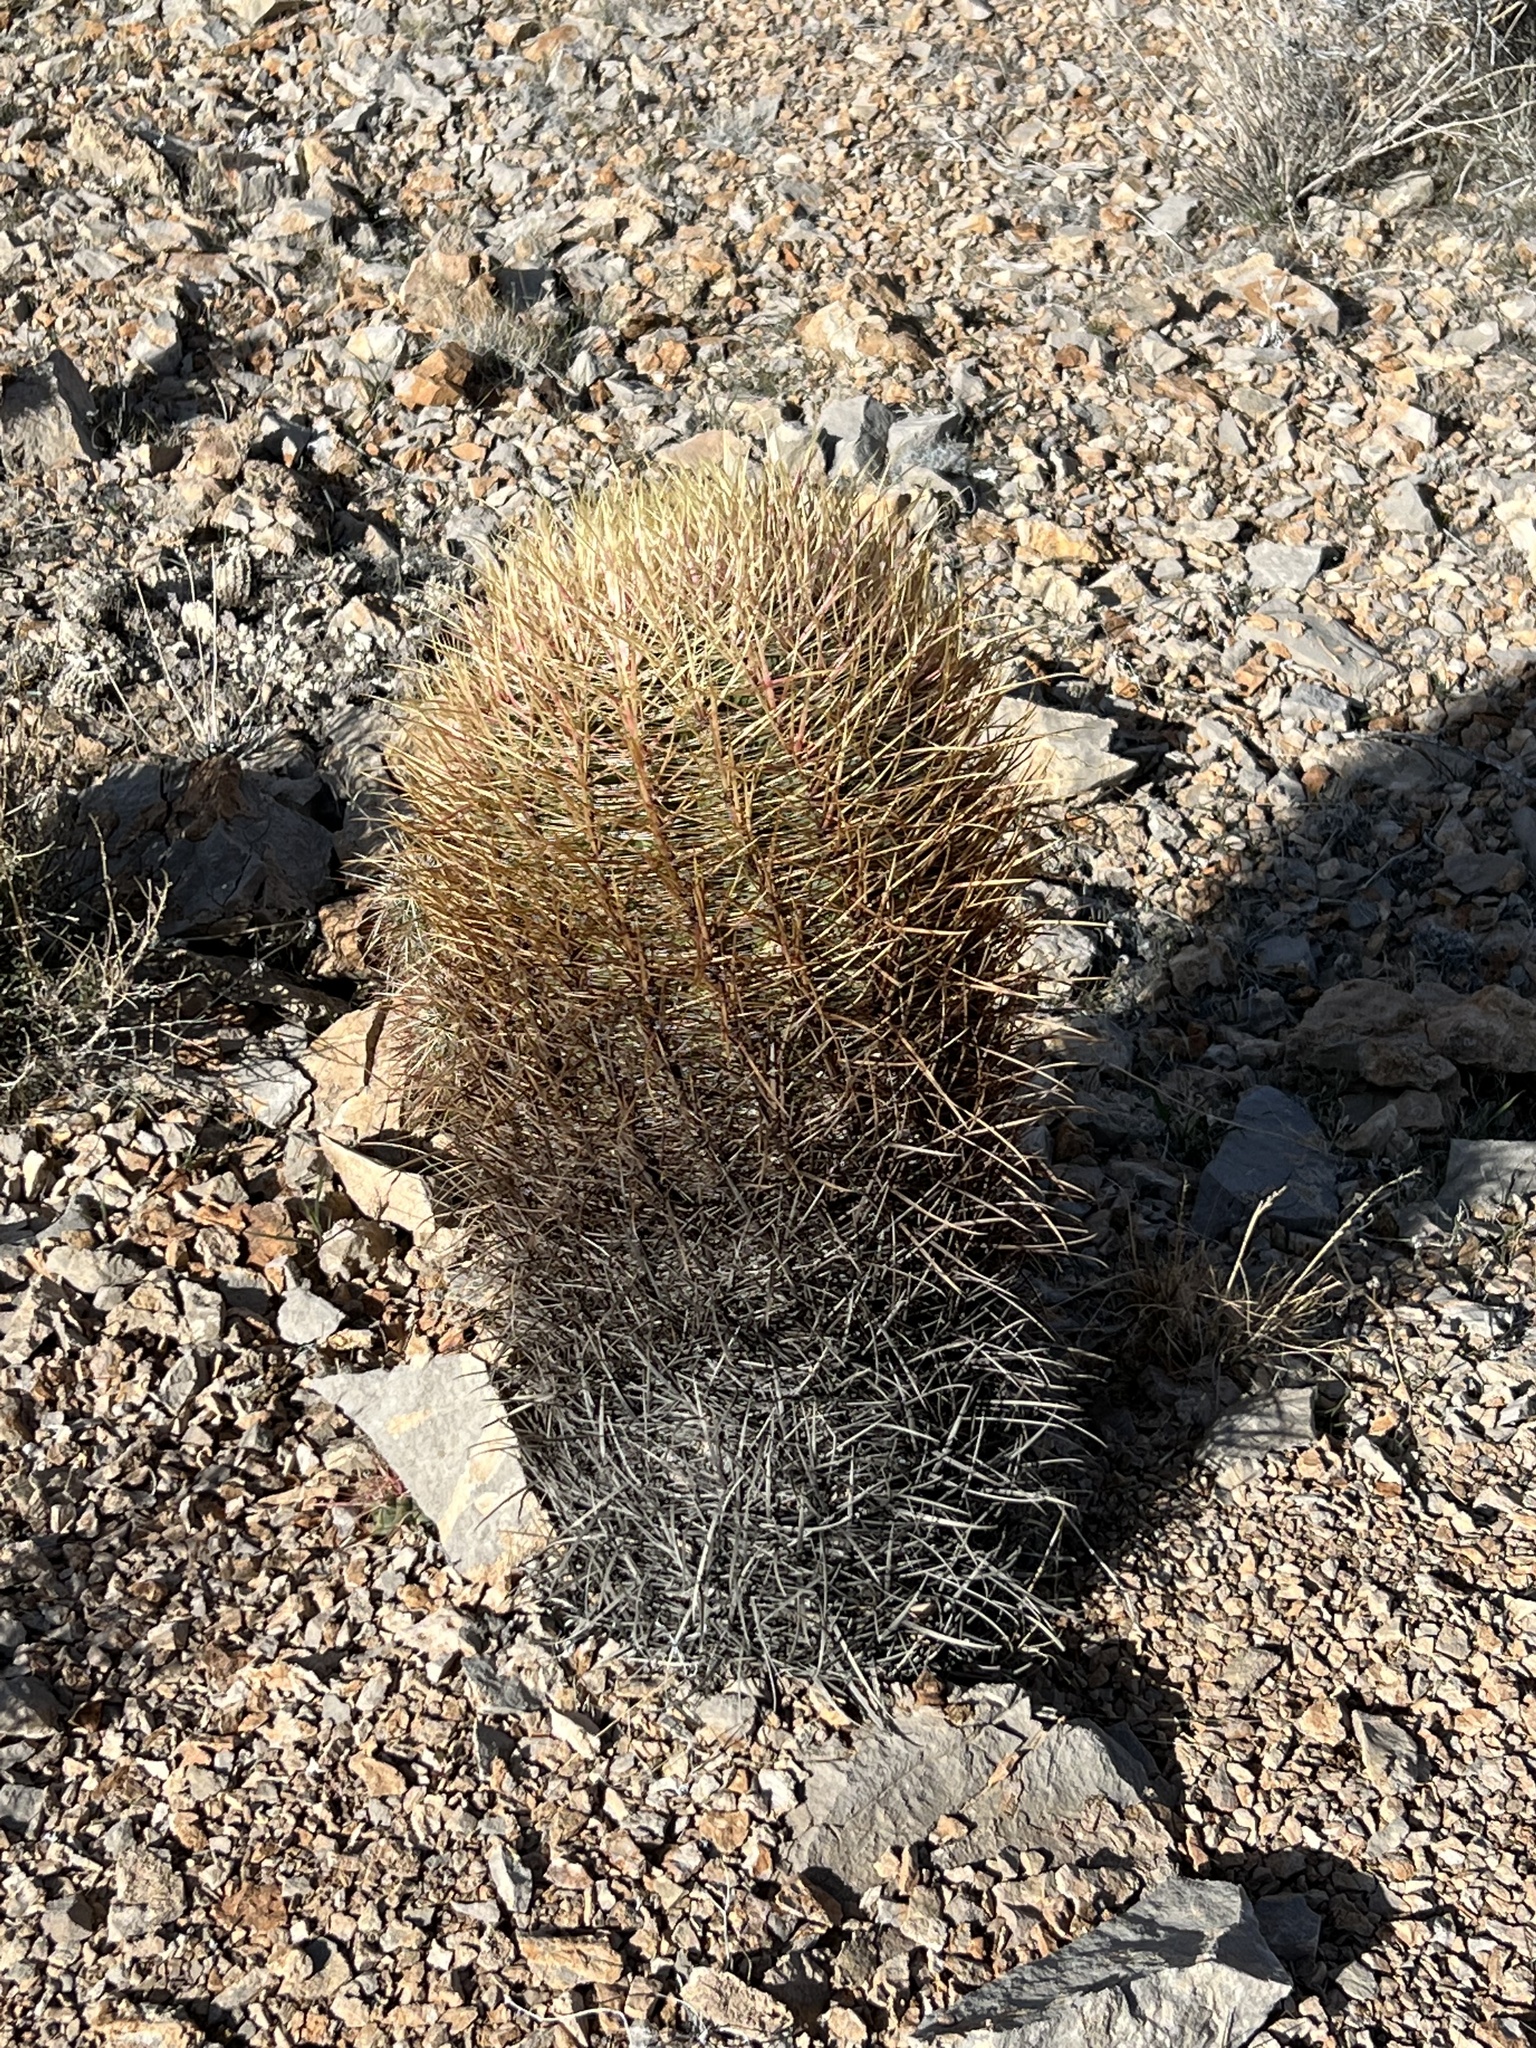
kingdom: Plantae
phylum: Tracheophyta
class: Magnoliopsida
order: Caryophyllales
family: Cactaceae
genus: Ferocactus
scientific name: Ferocactus cylindraceus
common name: California barrel cactus
